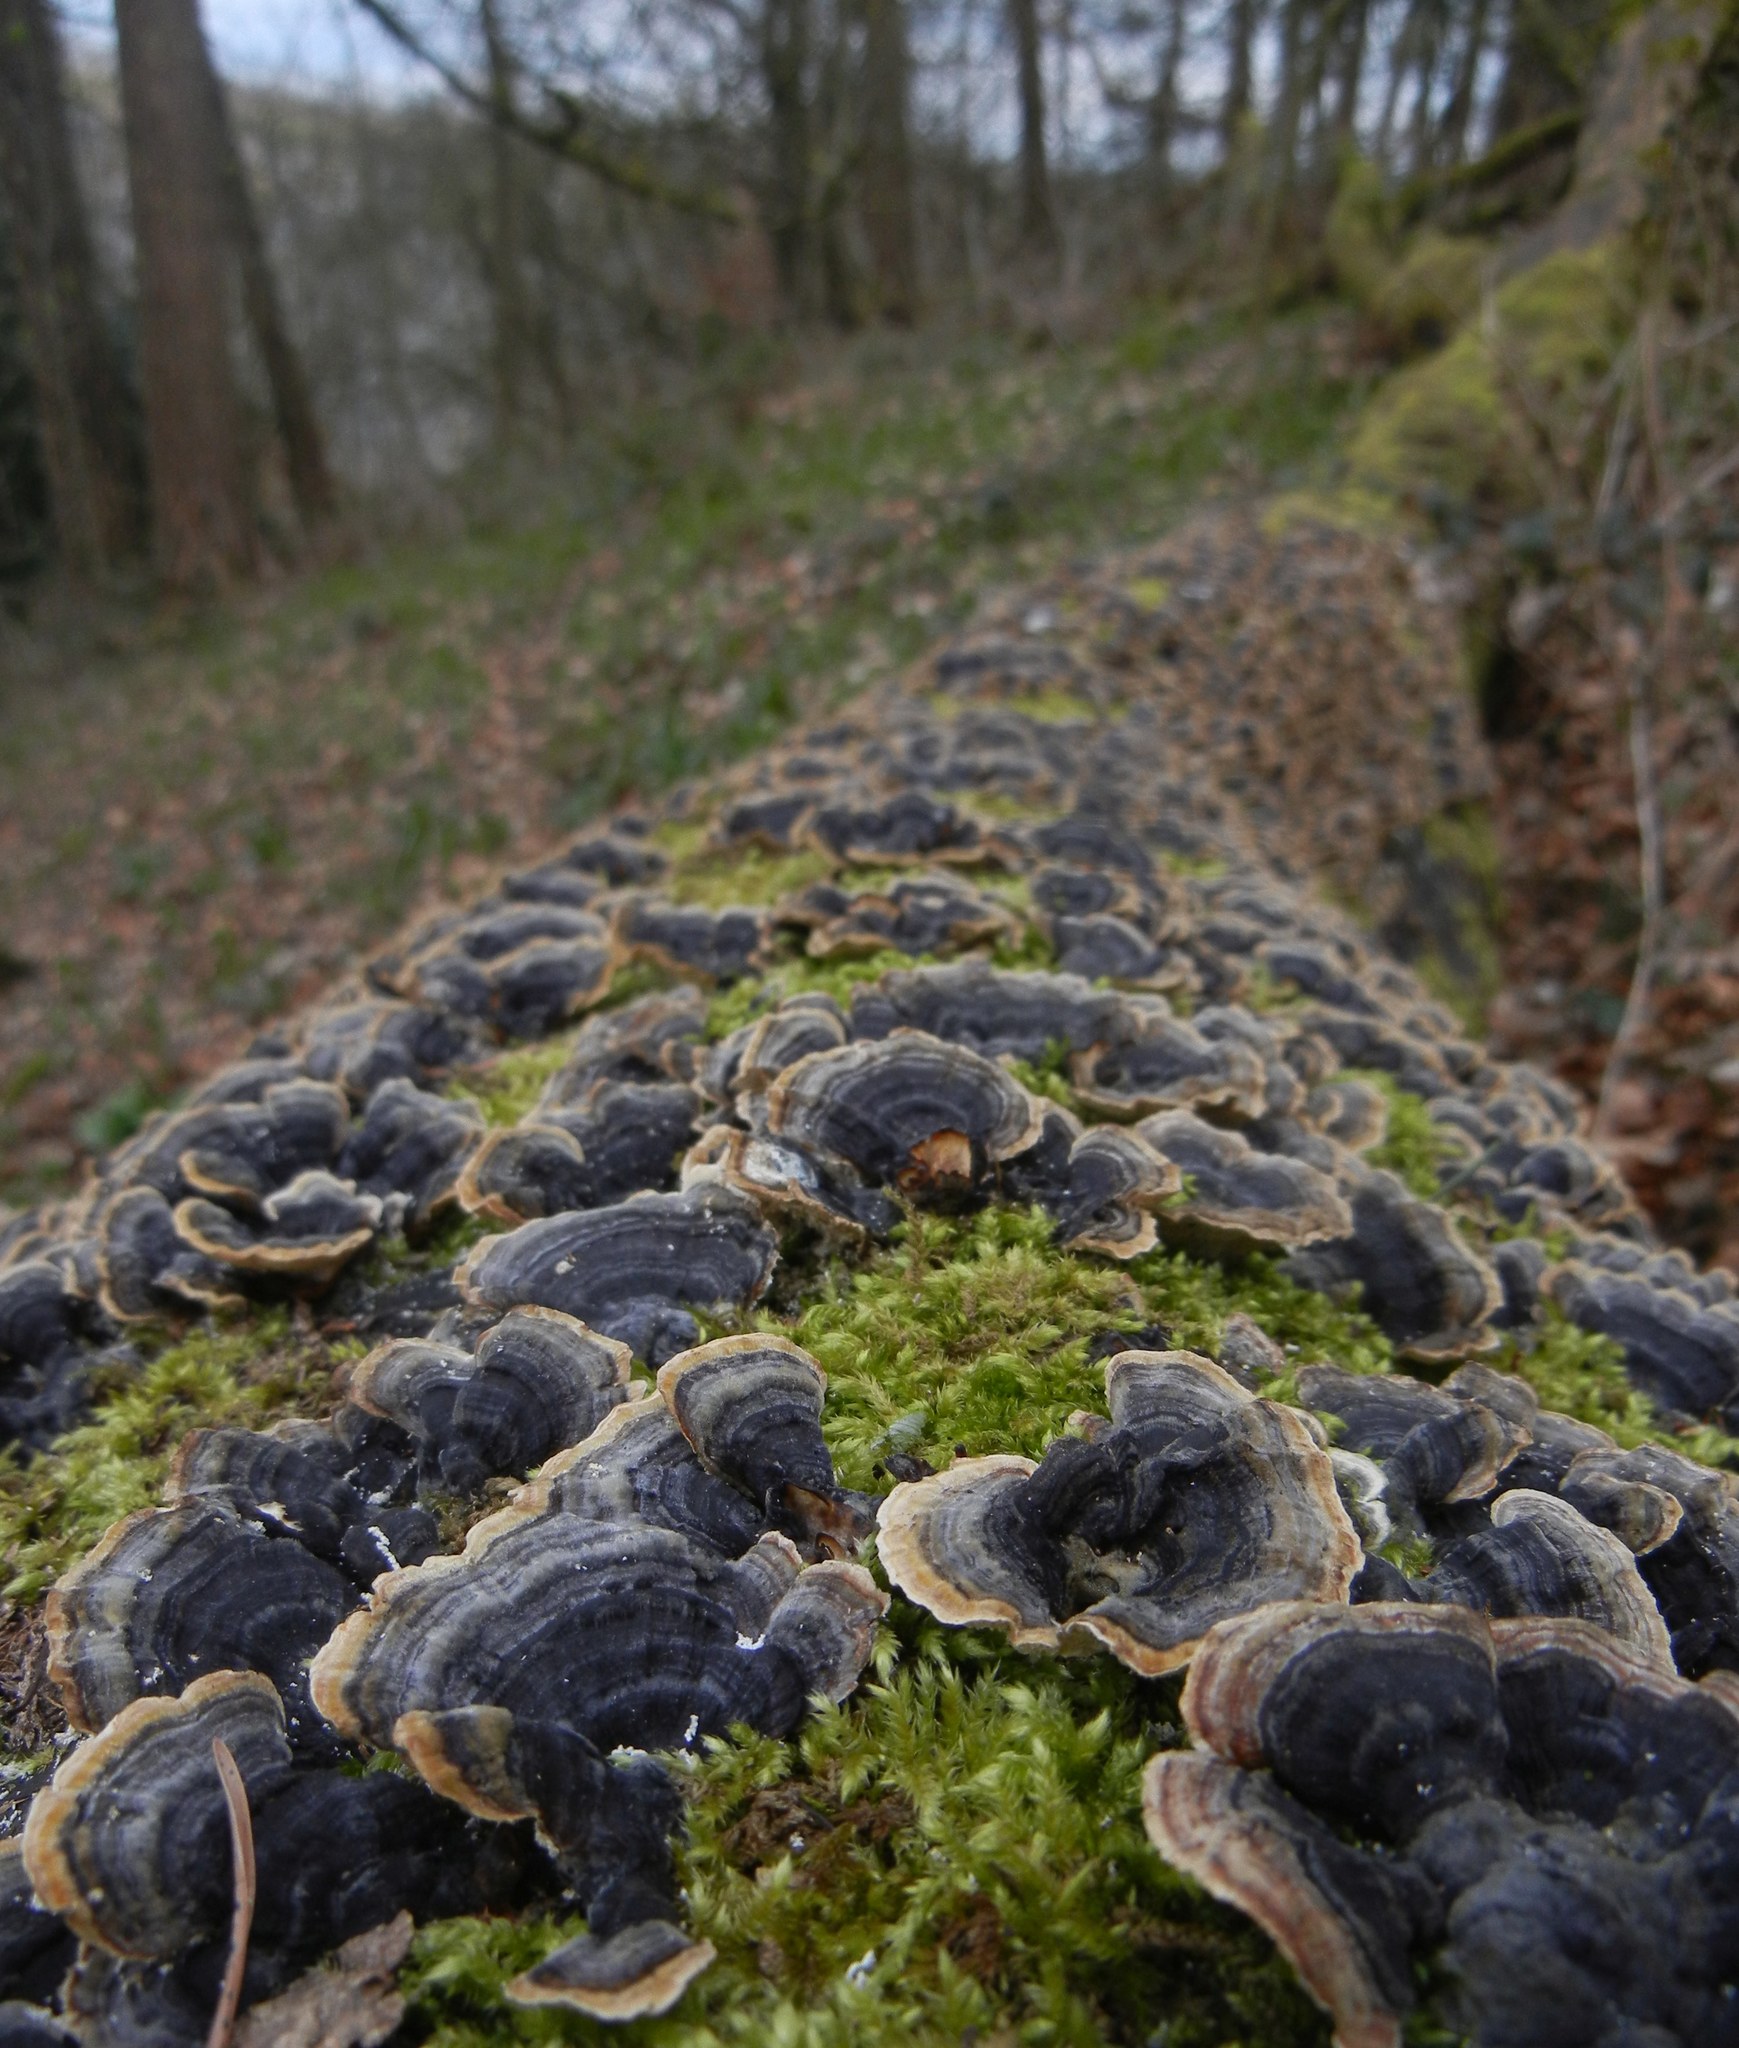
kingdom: Fungi
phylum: Basidiomycota
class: Agaricomycetes
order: Polyporales
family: Polyporaceae
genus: Trametes
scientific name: Trametes versicolor
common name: Turkeytail
